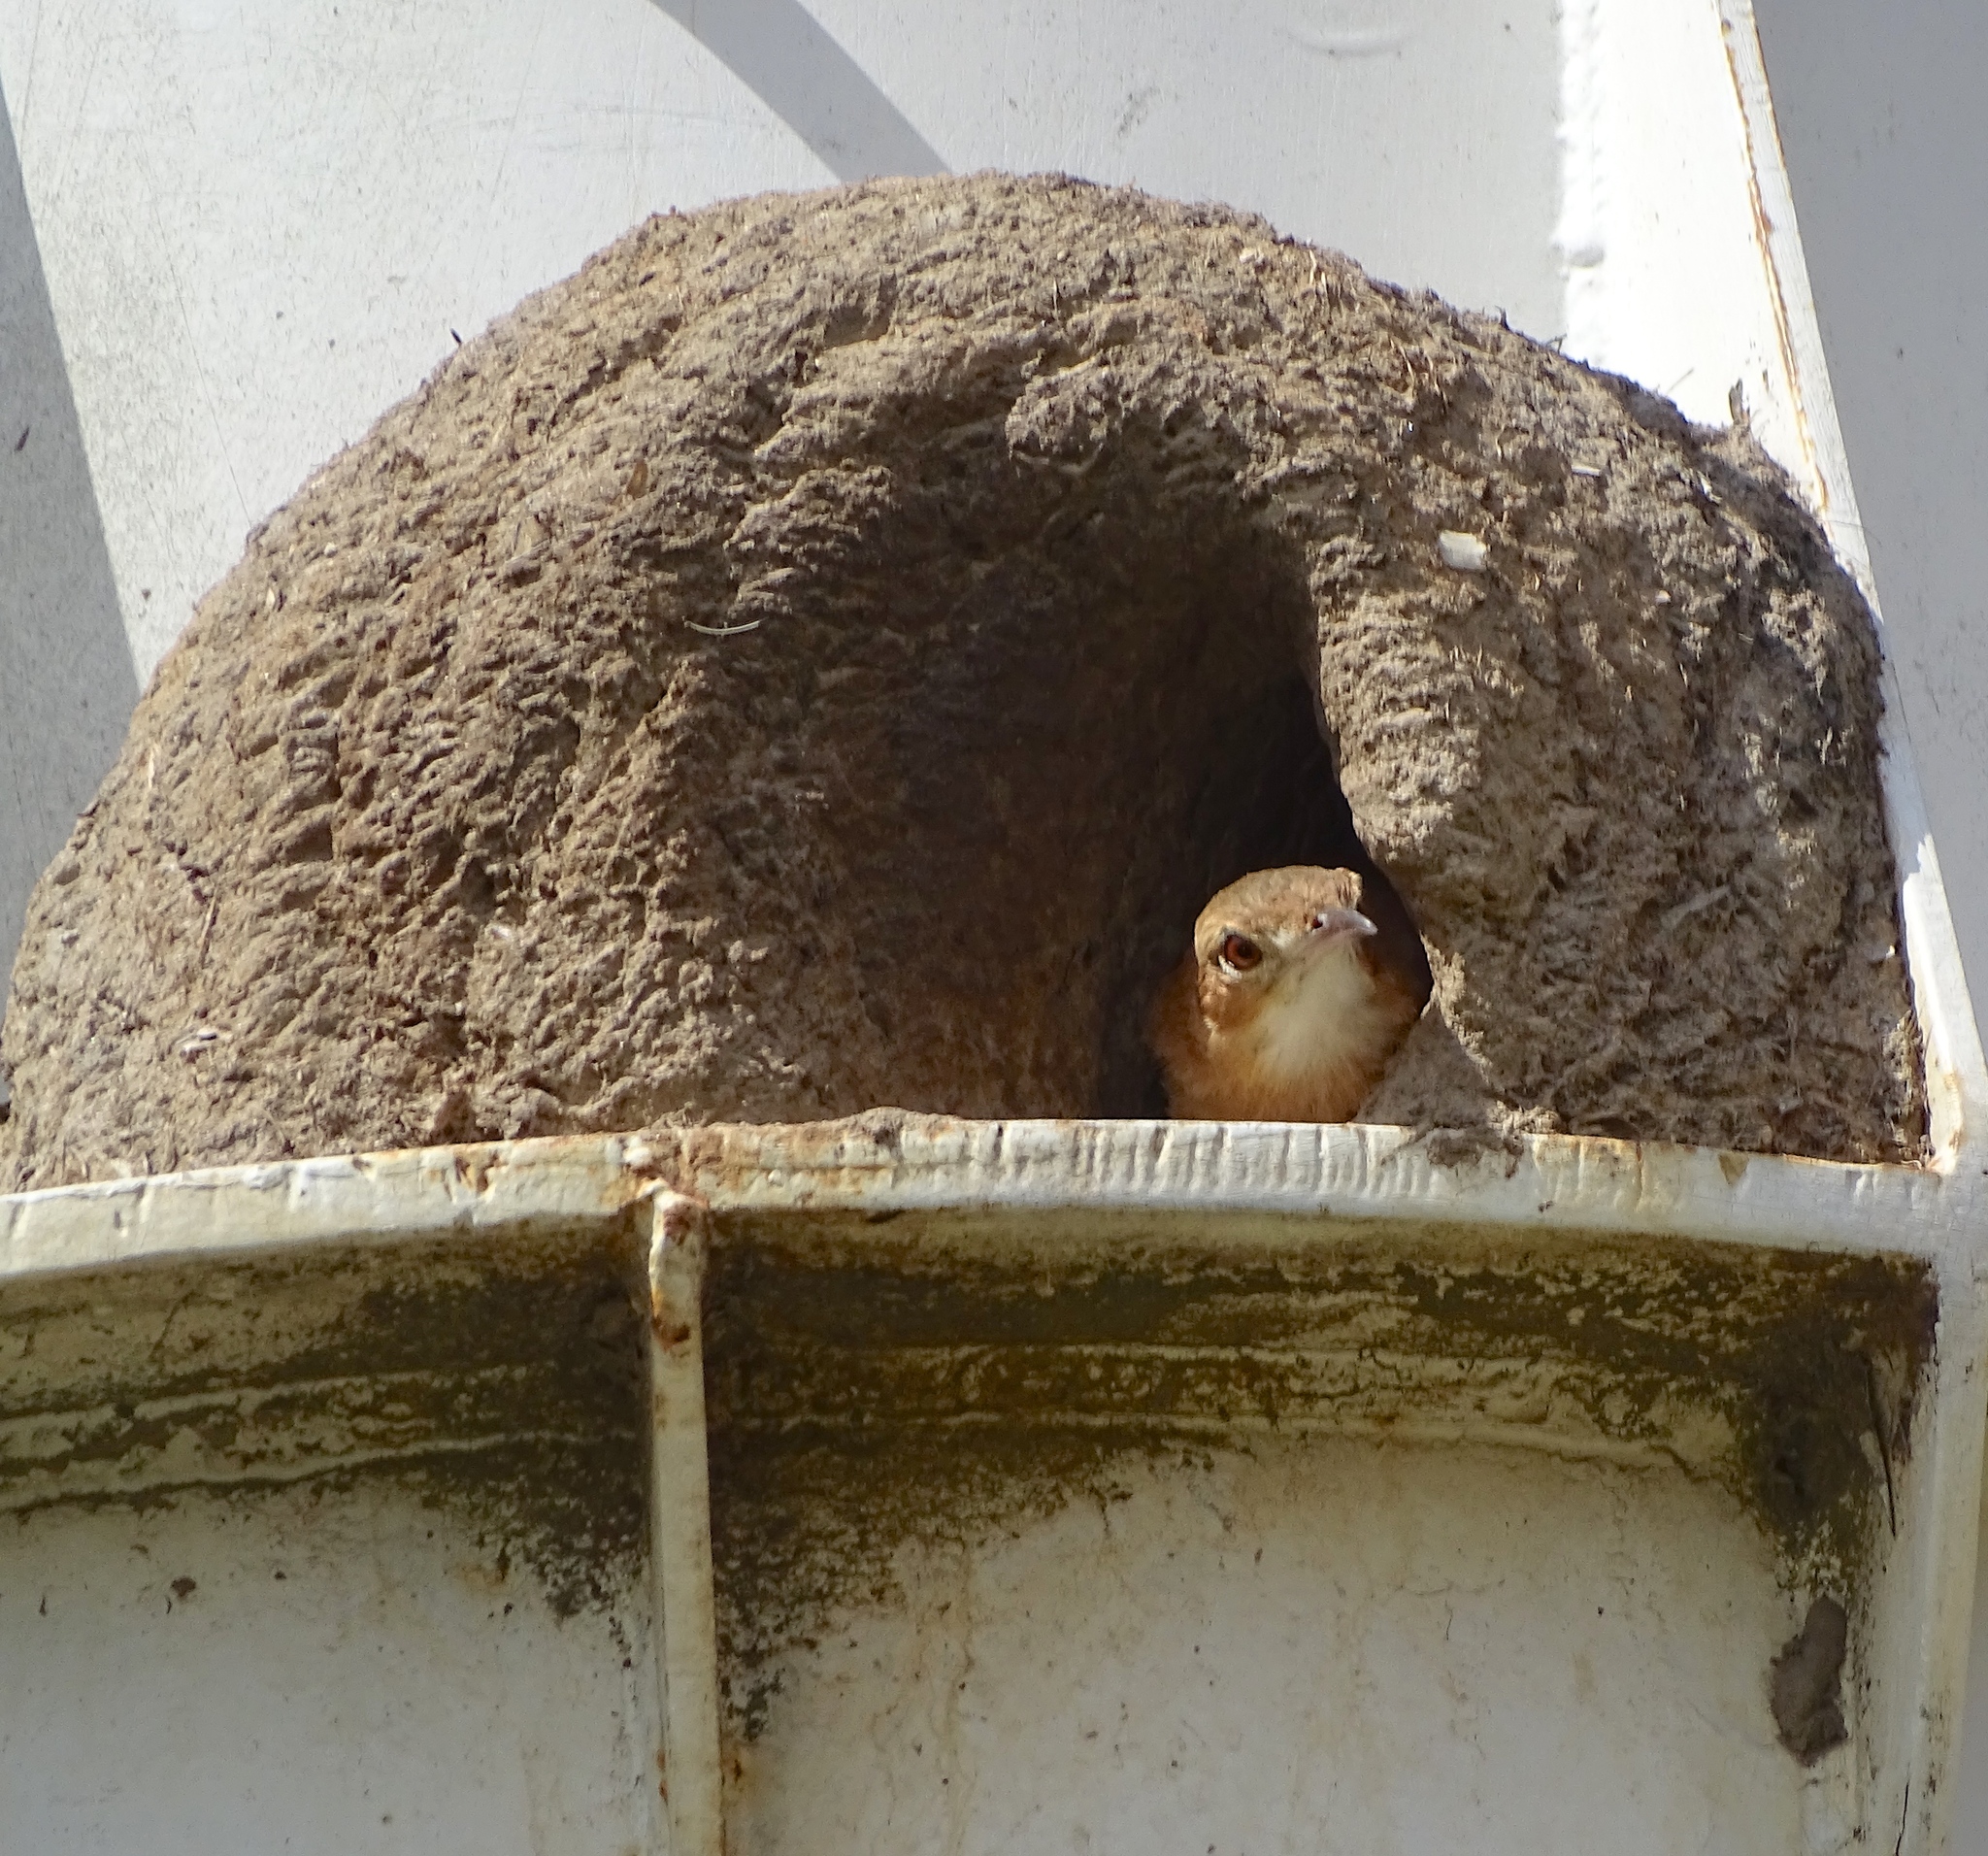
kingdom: Animalia
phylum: Chordata
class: Aves
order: Passeriformes
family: Furnariidae
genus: Furnarius
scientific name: Furnarius rufus
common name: Rufous hornero
